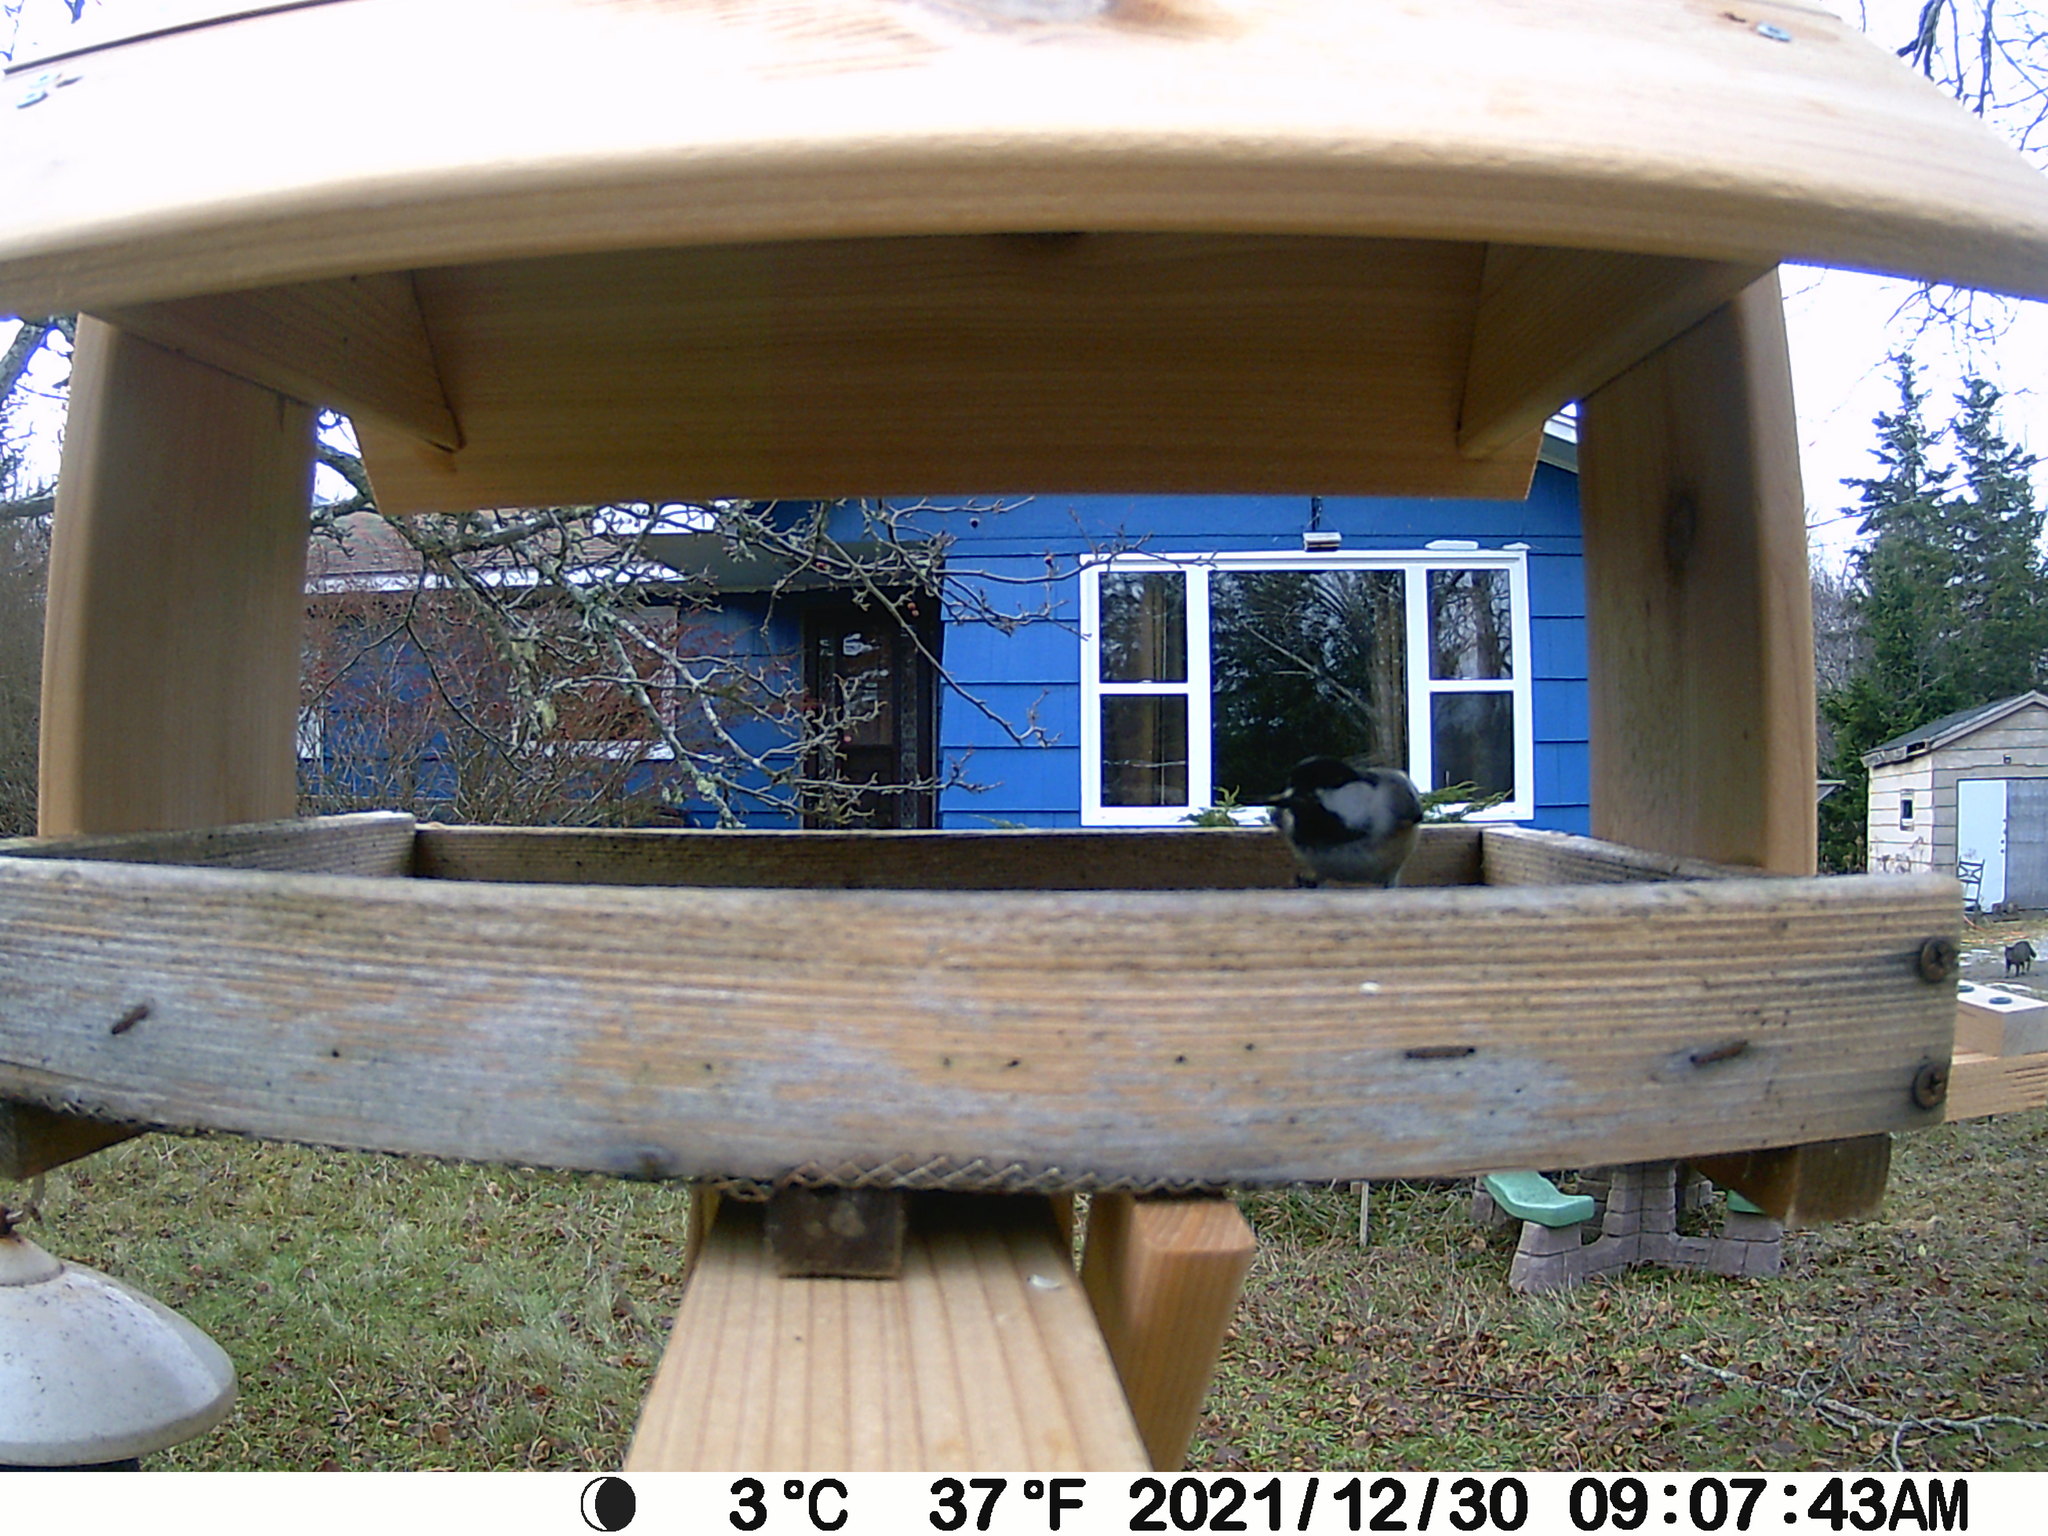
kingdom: Animalia
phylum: Chordata
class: Aves
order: Passeriformes
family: Paridae
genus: Poecile
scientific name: Poecile atricapillus
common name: Black-capped chickadee
